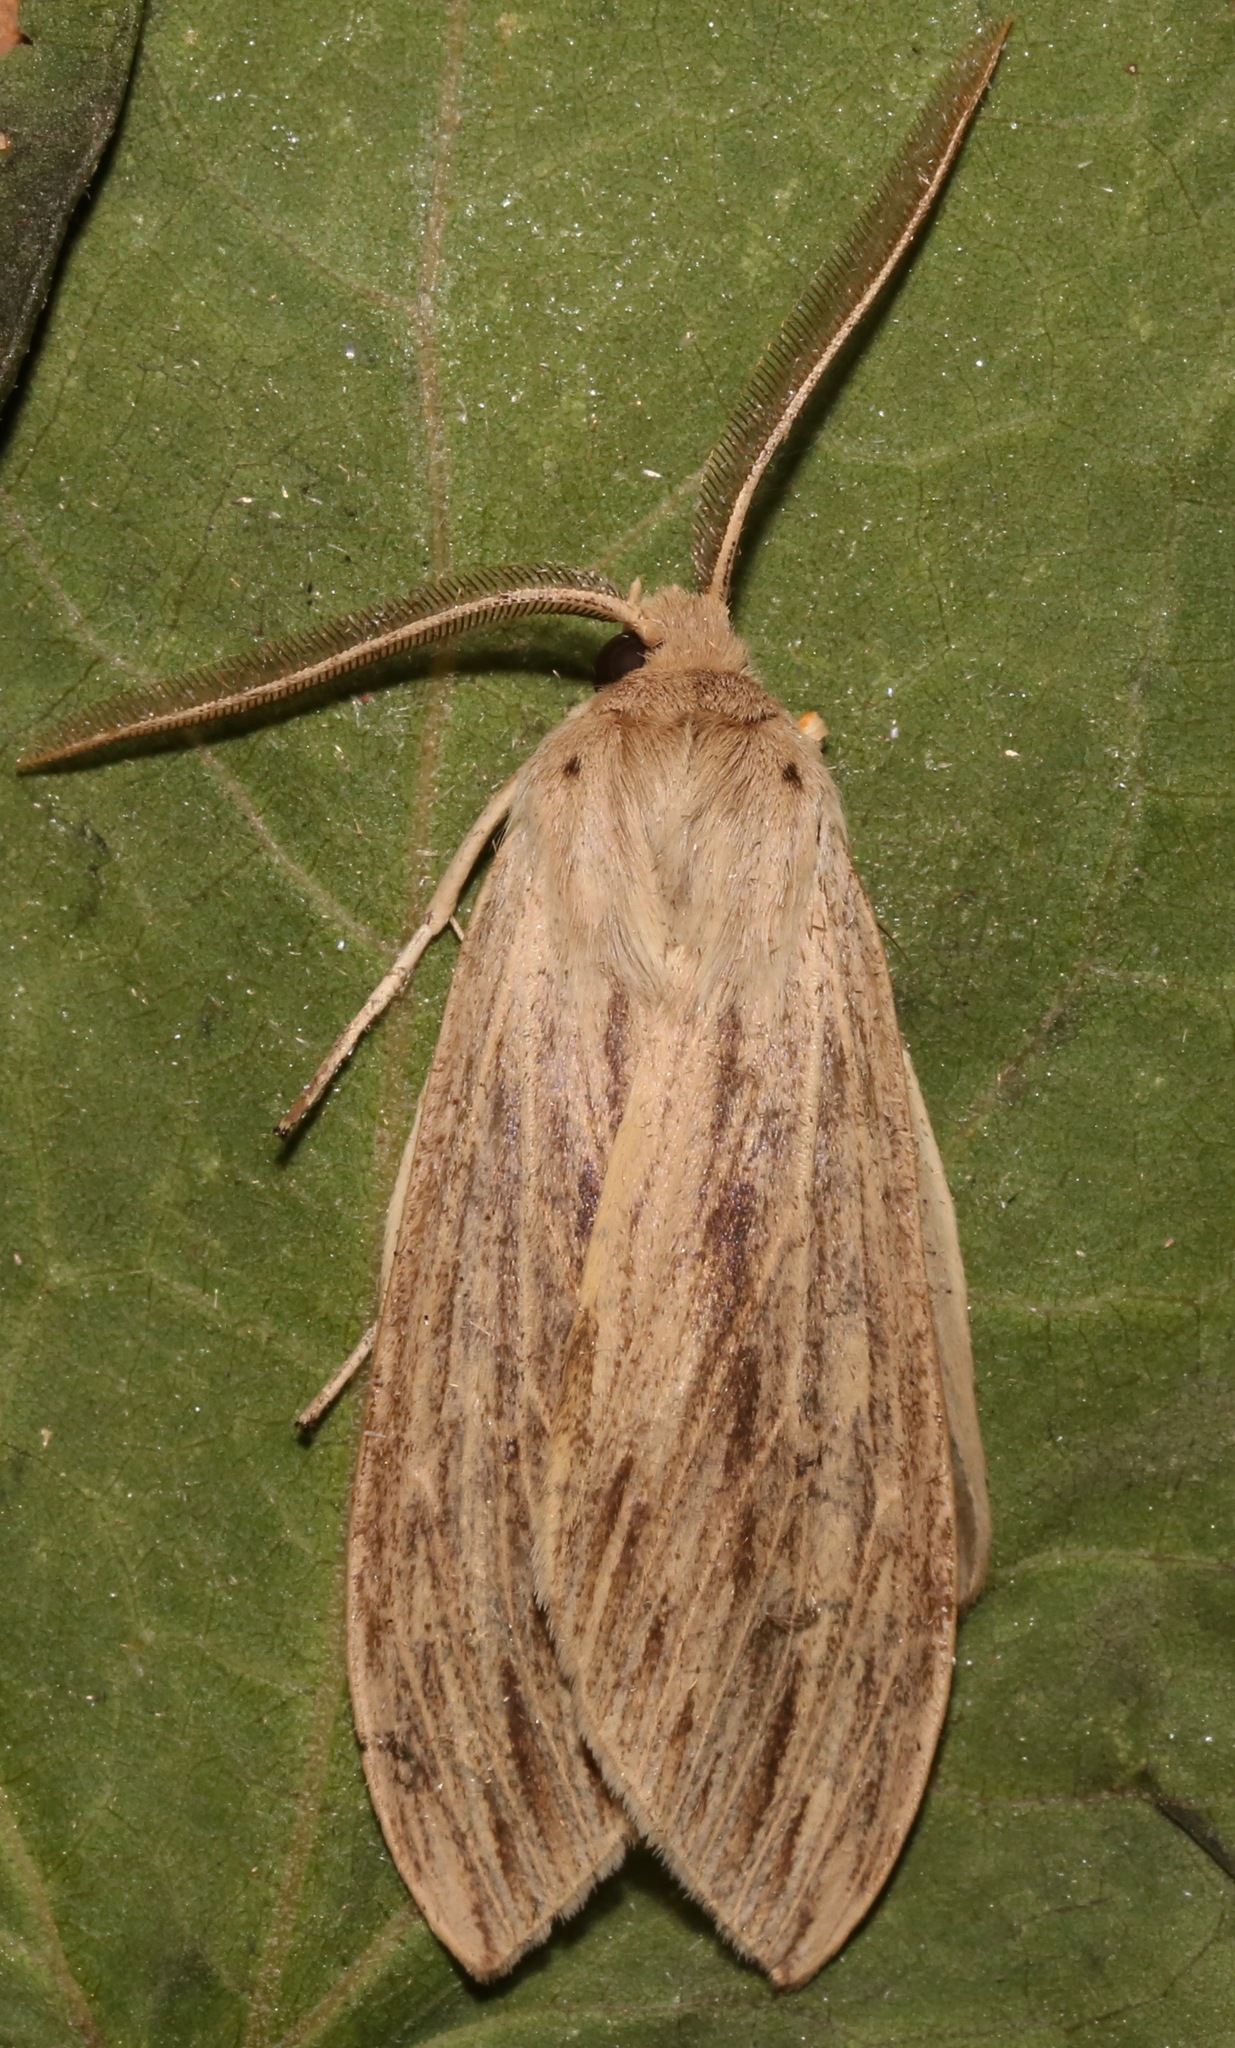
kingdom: Animalia
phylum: Arthropoda
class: Insecta
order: Lepidoptera
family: Erebidae
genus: Leucanopsis
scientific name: Leucanopsis lurida
